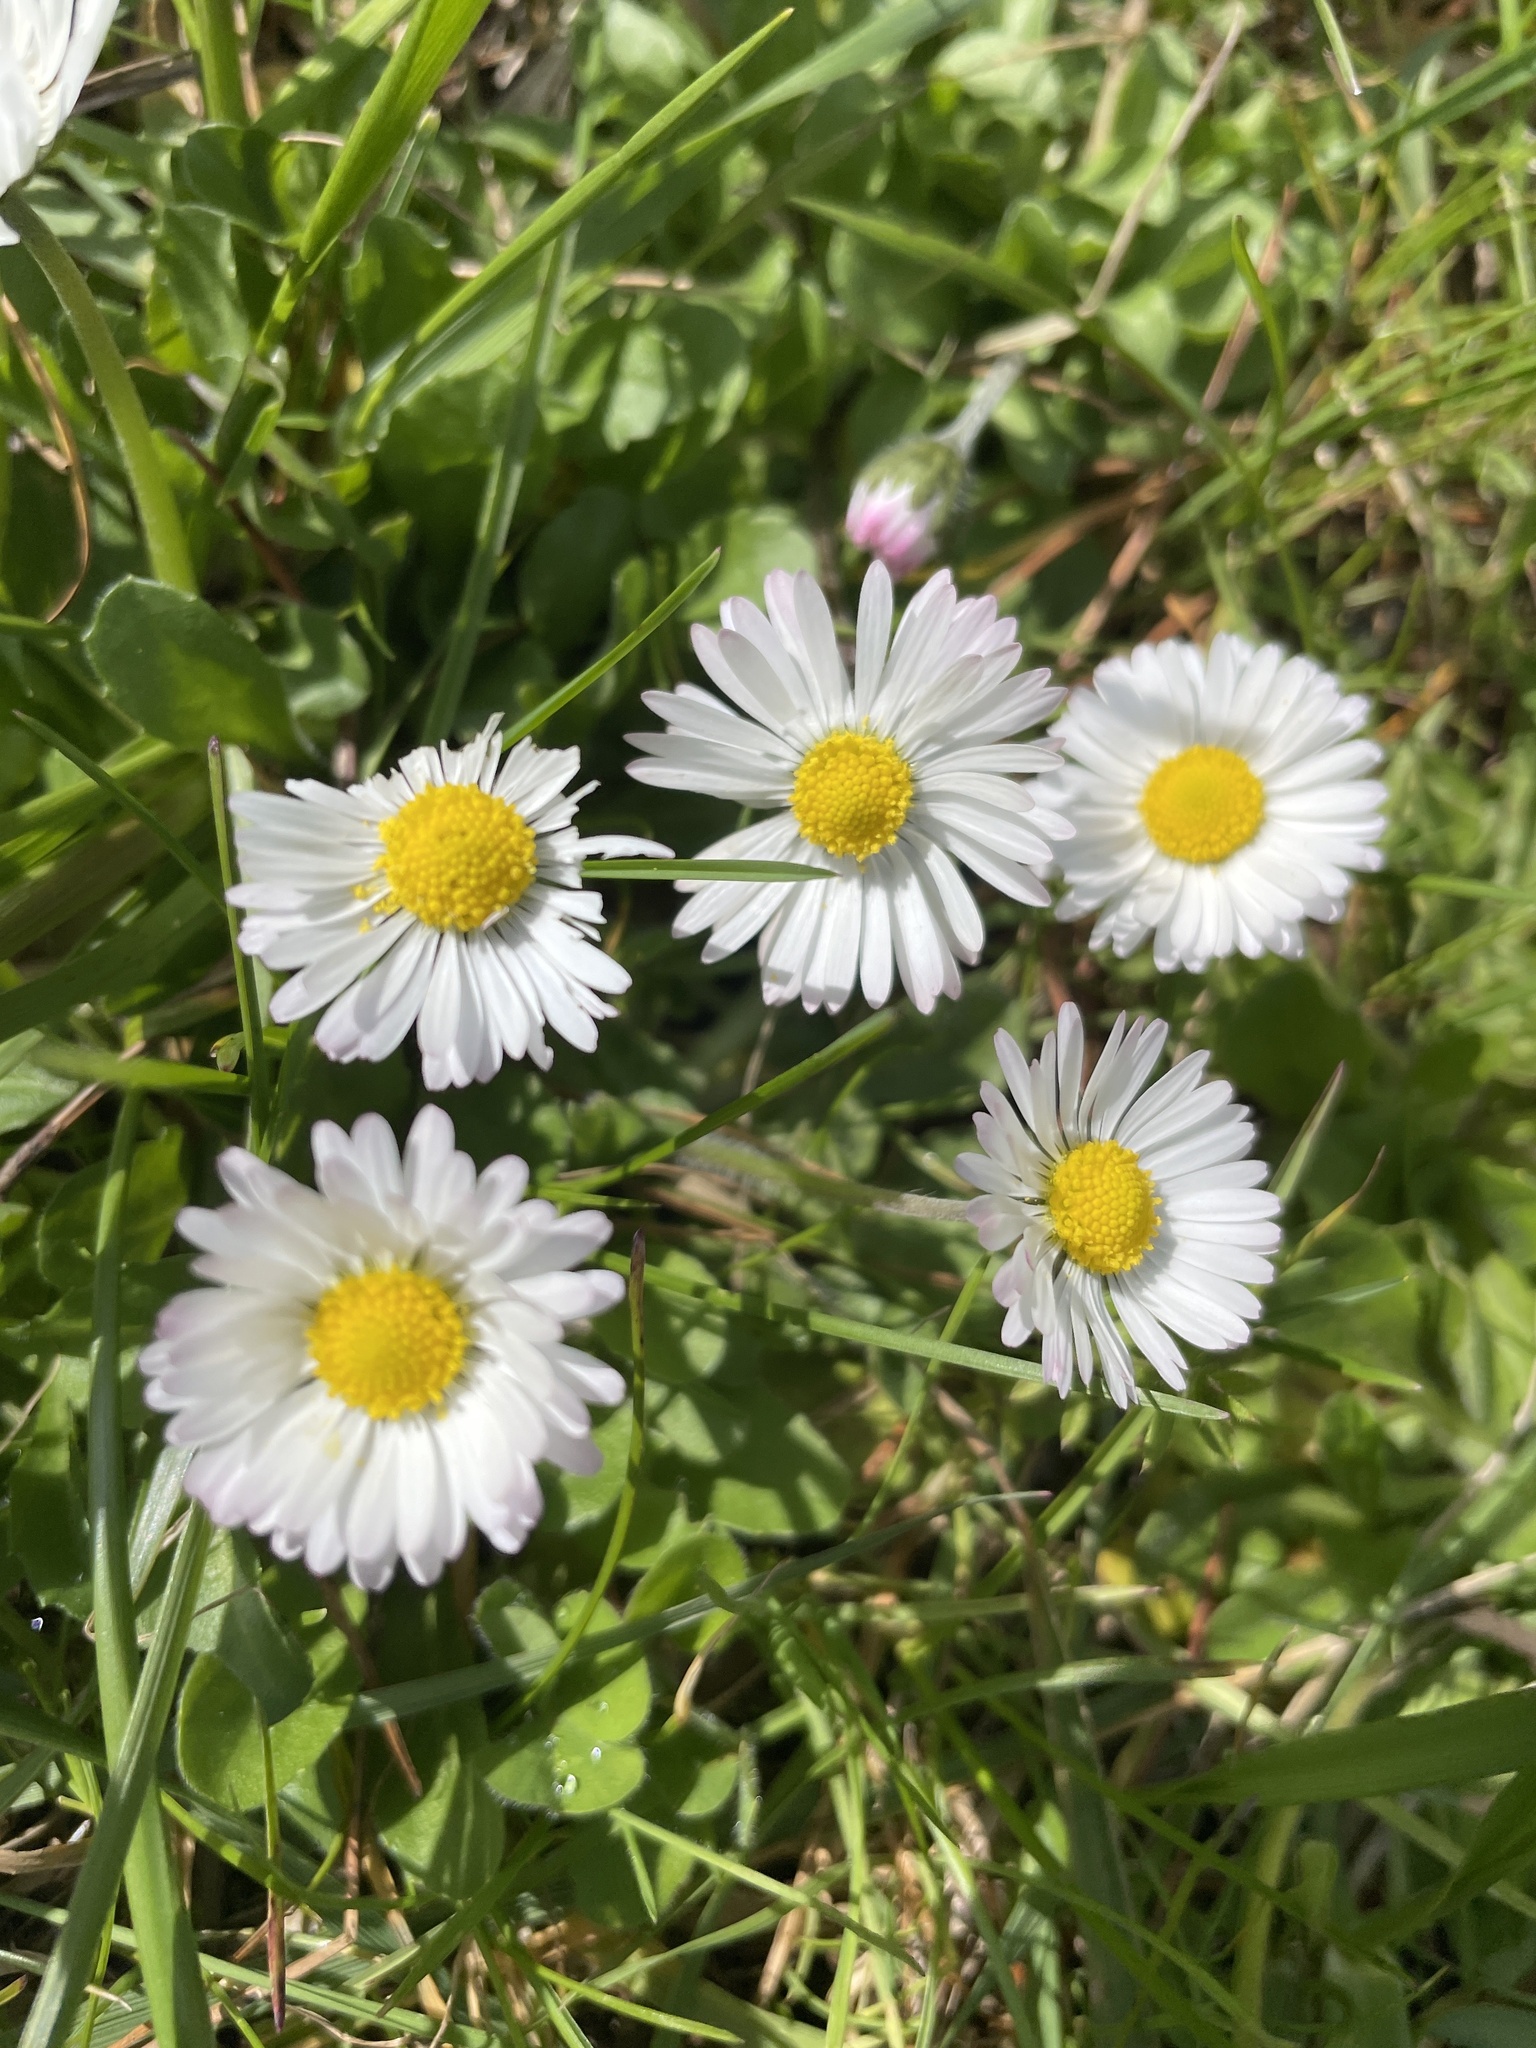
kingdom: Plantae
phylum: Tracheophyta
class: Magnoliopsida
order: Asterales
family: Asteraceae
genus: Bellis
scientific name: Bellis perennis
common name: Lawndaisy
